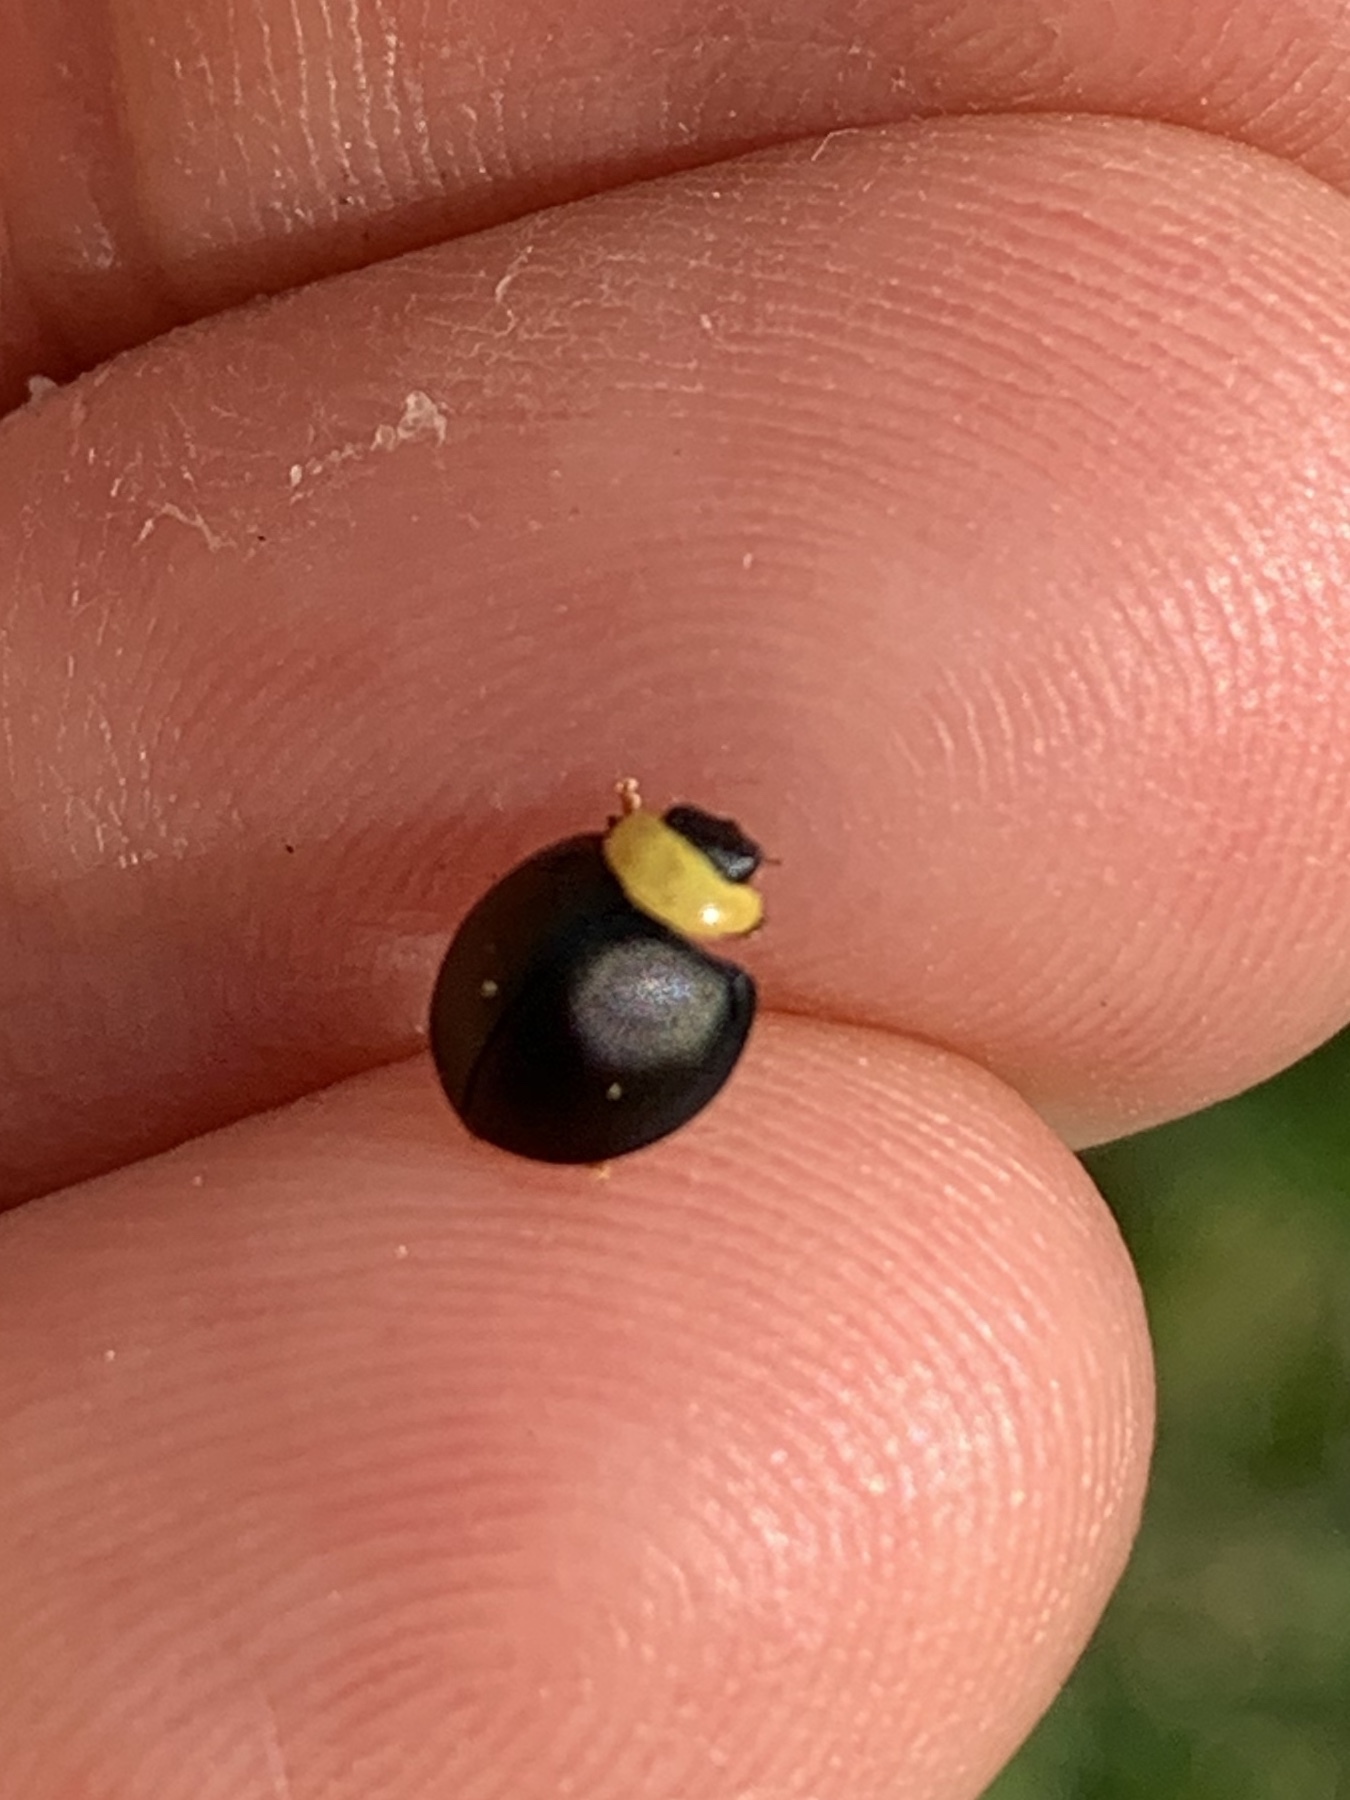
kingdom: Animalia
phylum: Arthropoda
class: Insecta
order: Coleoptera
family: Coccinellidae
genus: Egius
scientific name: Egius platycephalus
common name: Ladybird beetle
